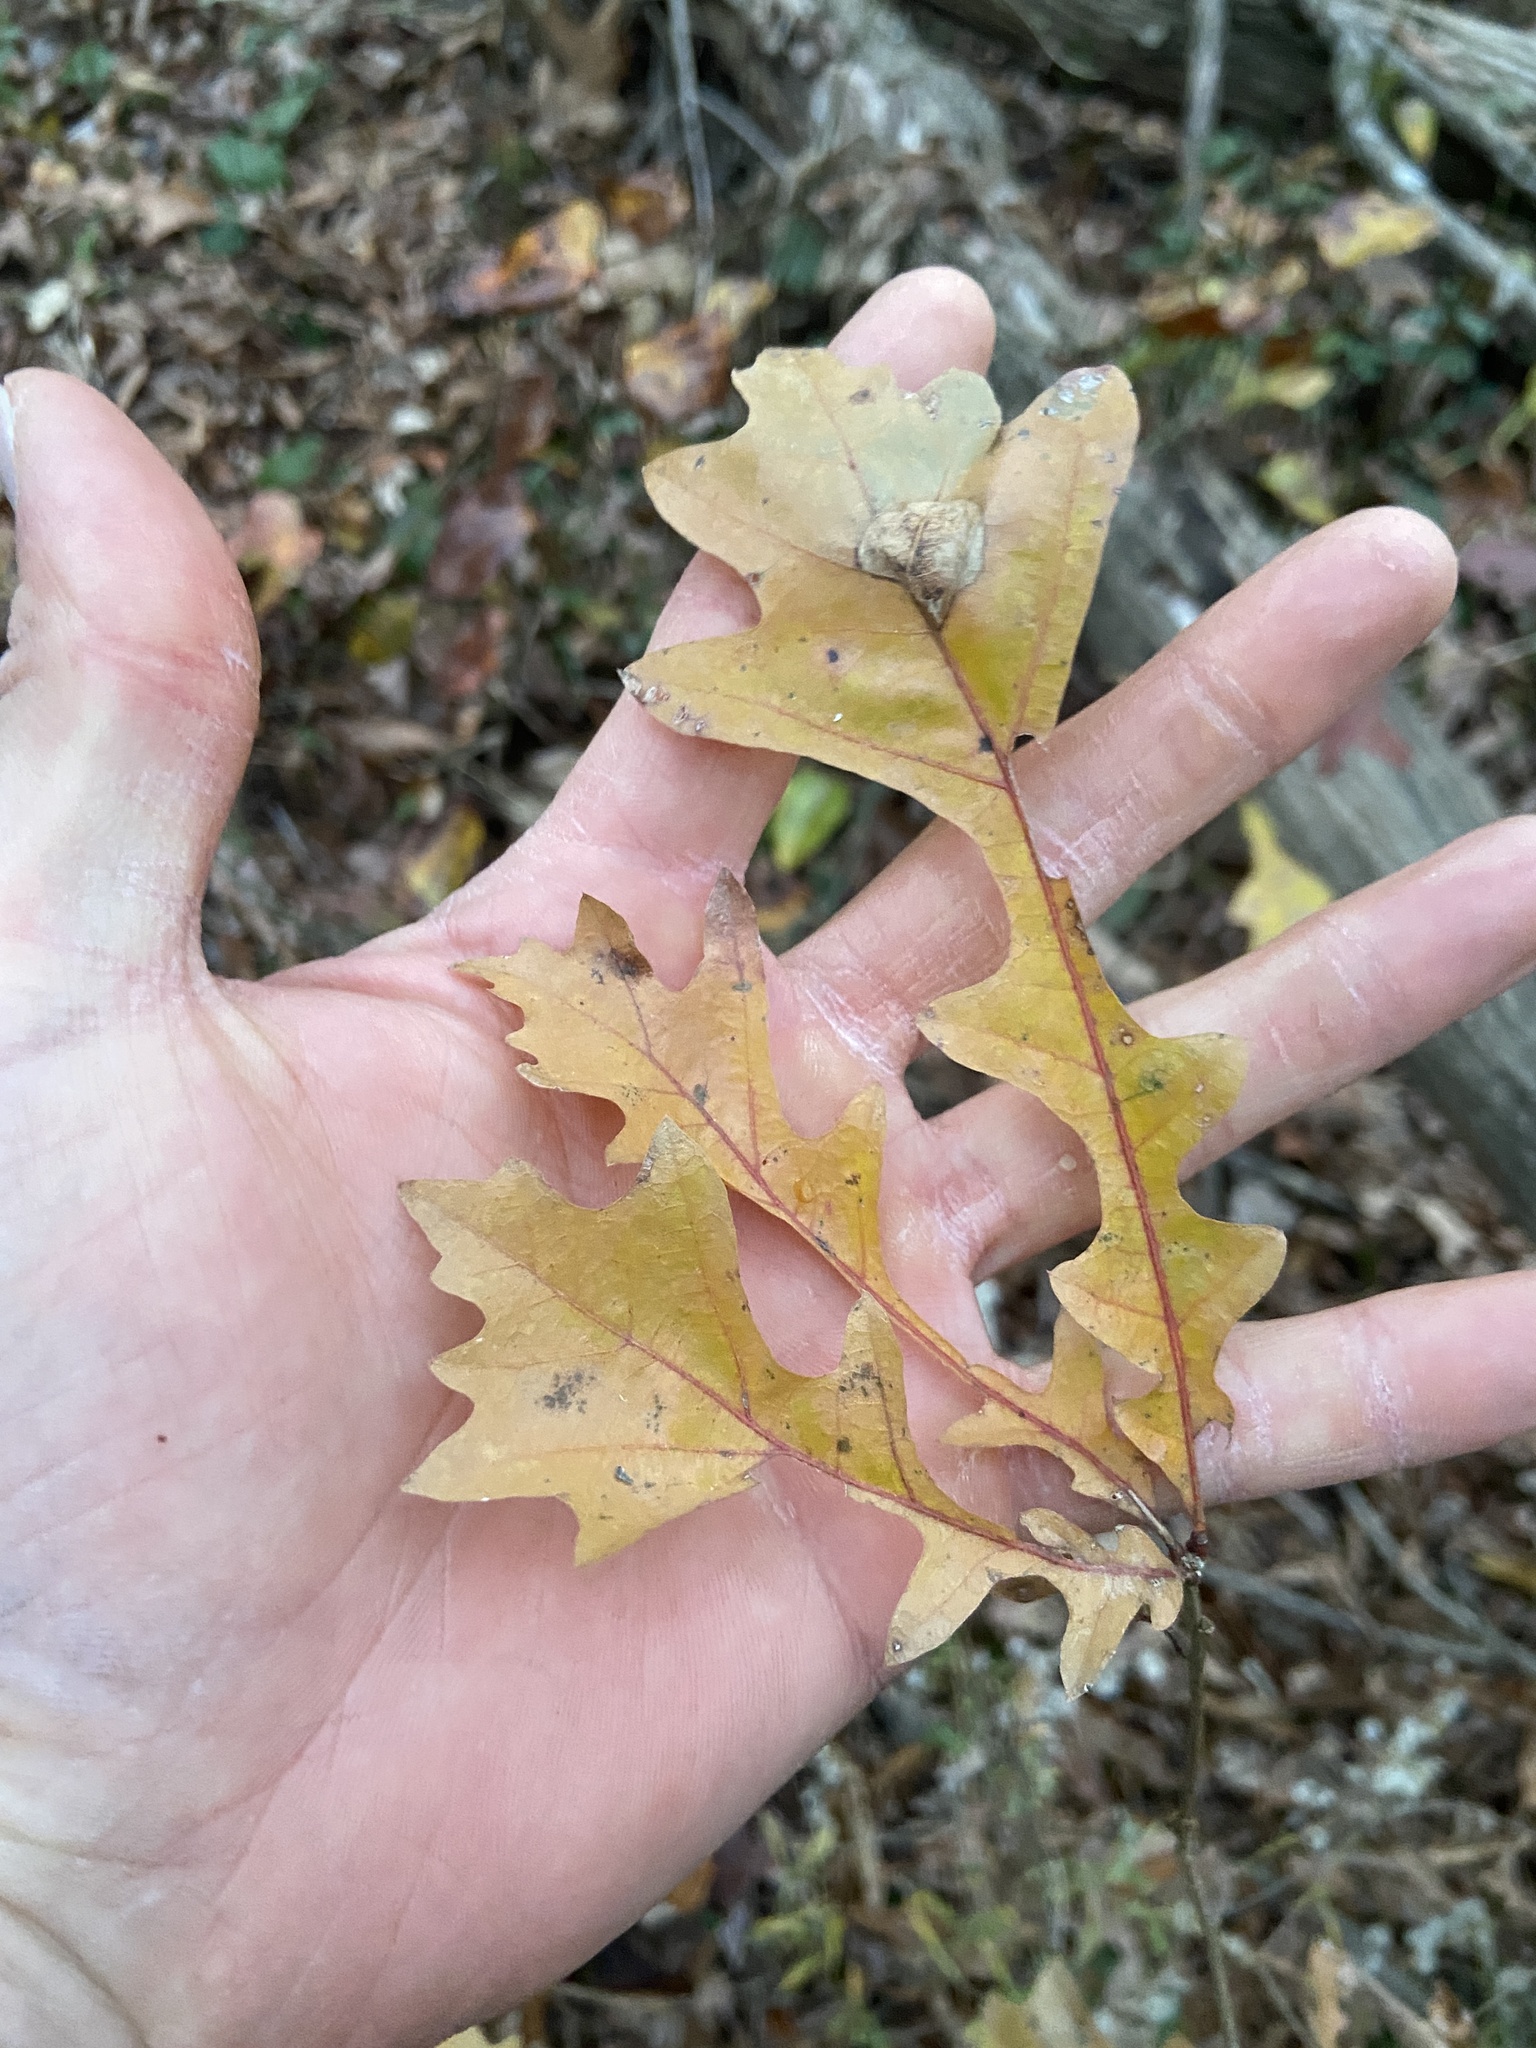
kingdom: Plantae
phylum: Tracheophyta
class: Magnoliopsida
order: Fagales
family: Fagaceae
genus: Quercus
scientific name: Quercus lyrata
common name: Overcup oak
